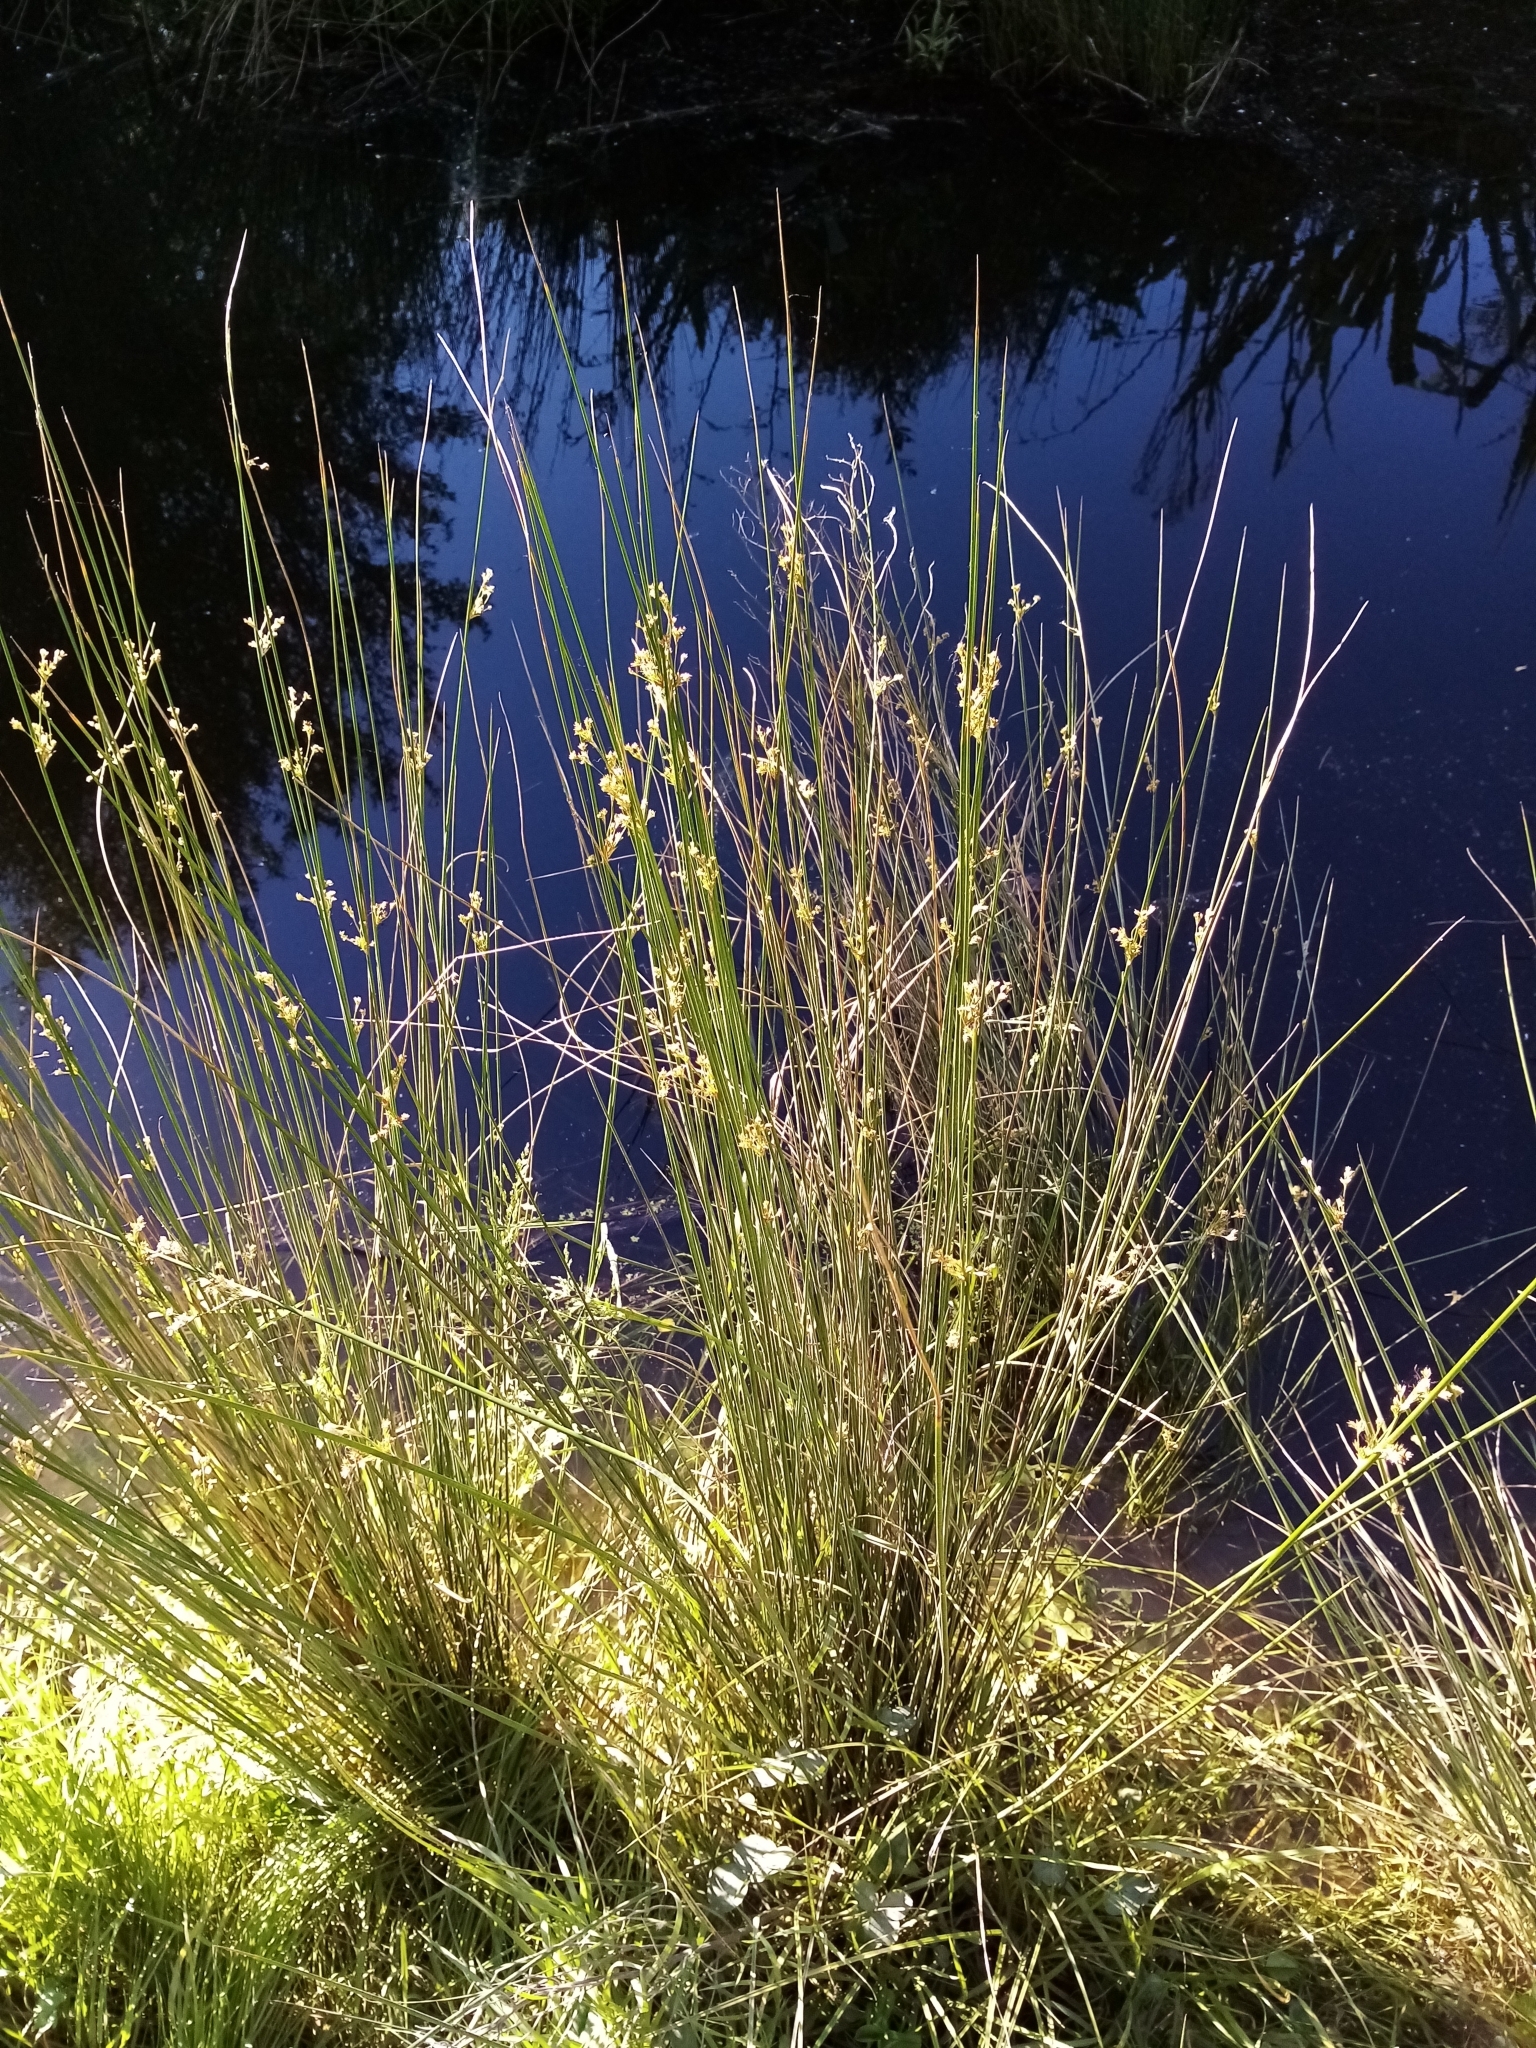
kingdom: Plantae
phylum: Tracheophyta
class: Liliopsida
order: Poales
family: Juncaceae
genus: Juncus
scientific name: Juncus sarophorus
